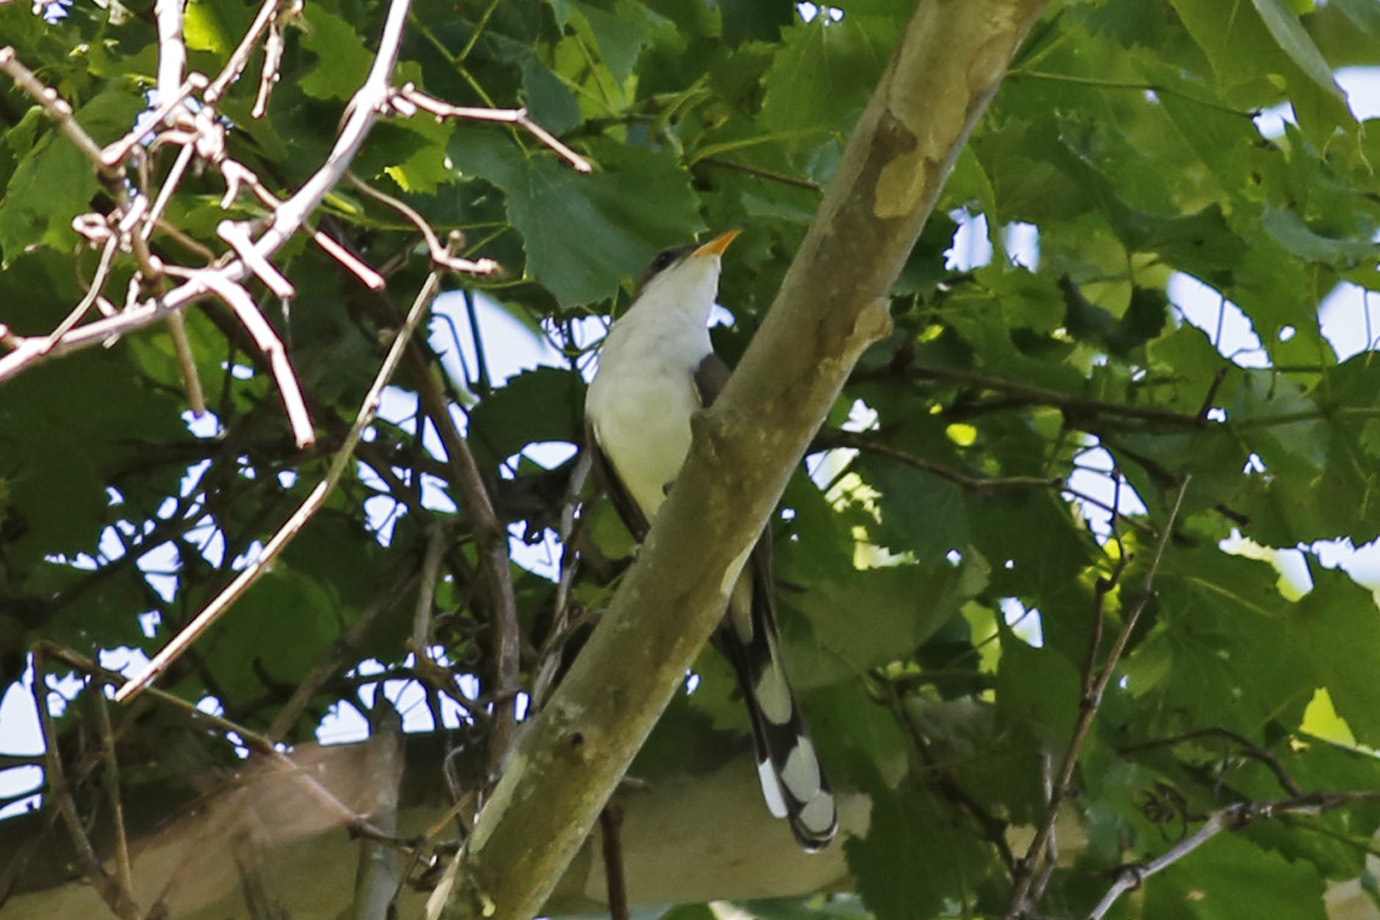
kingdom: Animalia
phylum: Chordata
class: Aves
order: Cuculiformes
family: Cuculidae
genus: Coccyzus
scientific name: Coccyzus americanus
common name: Yellow-billed cuckoo
